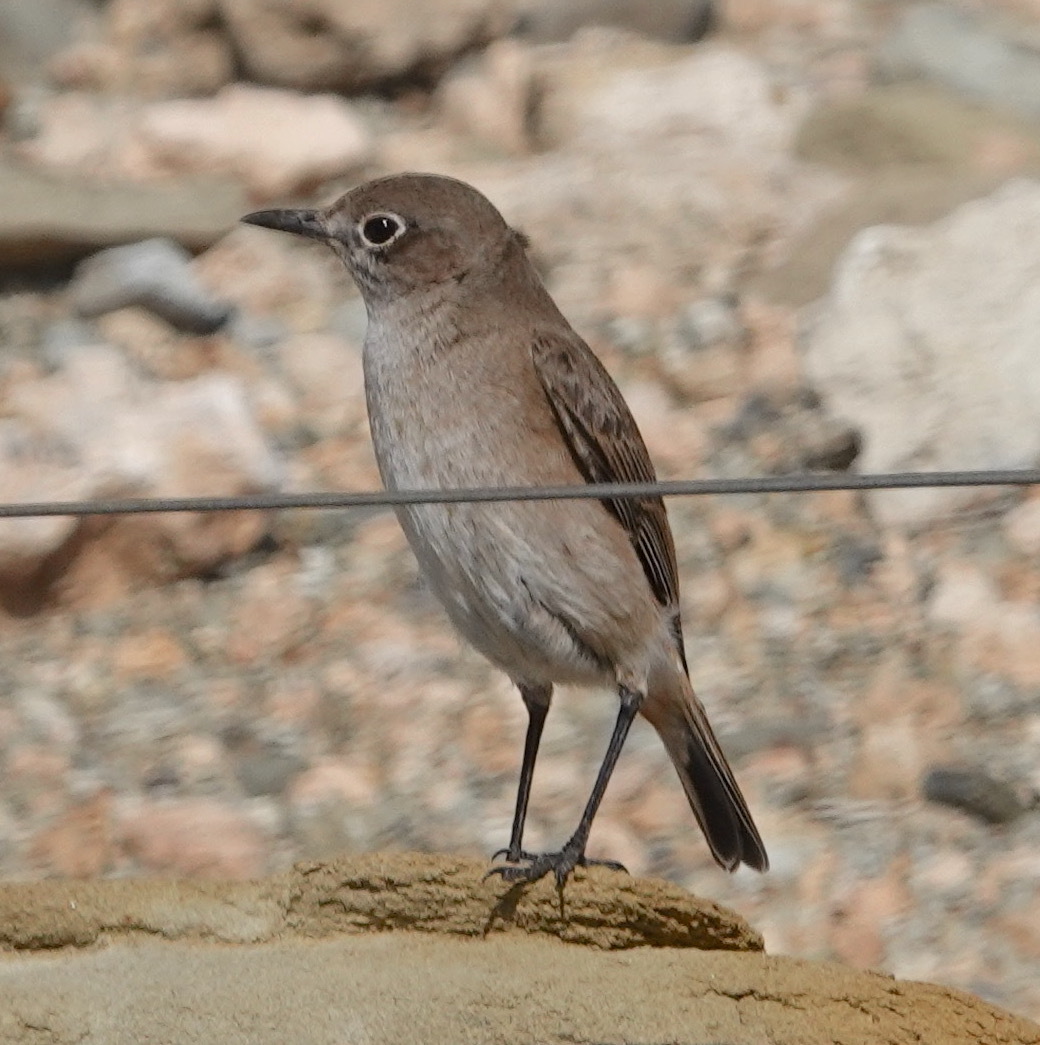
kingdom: Animalia
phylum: Chordata
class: Aves
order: Passeriformes
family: Muscicapidae
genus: Oenanthe
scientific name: Oenanthe familiaris
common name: Familiar chat
